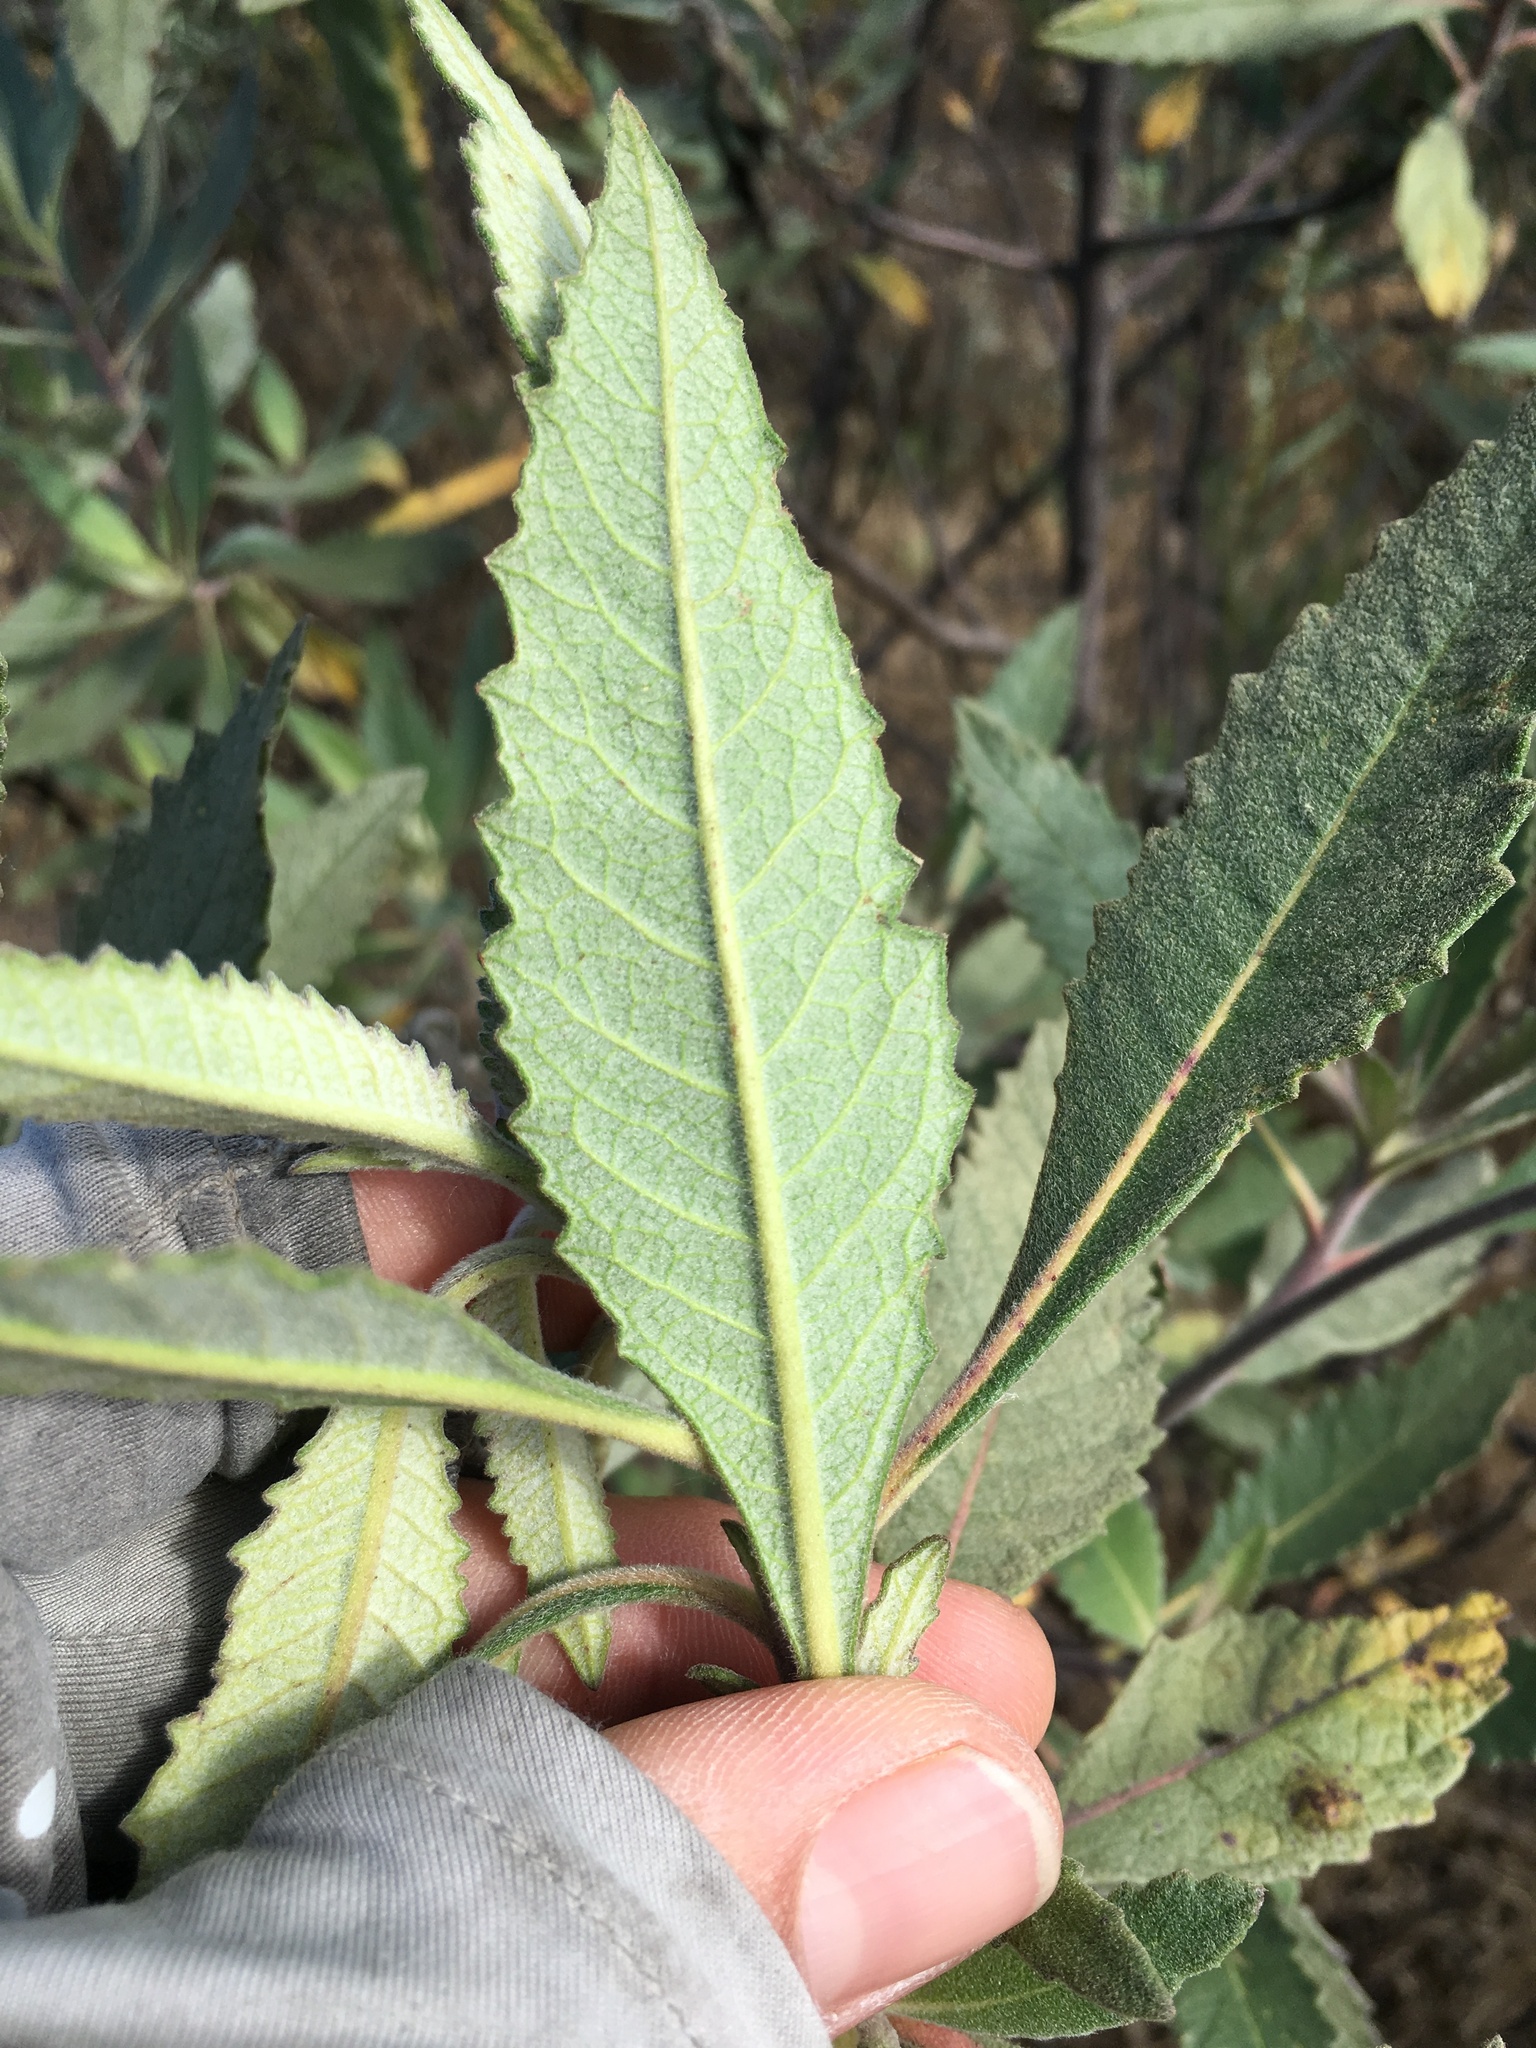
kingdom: Plantae
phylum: Tracheophyta
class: Magnoliopsida
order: Boraginales
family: Namaceae
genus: Eriodictyon
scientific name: Eriodictyon crassifolium
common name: Thick-leaf yerba-santa
